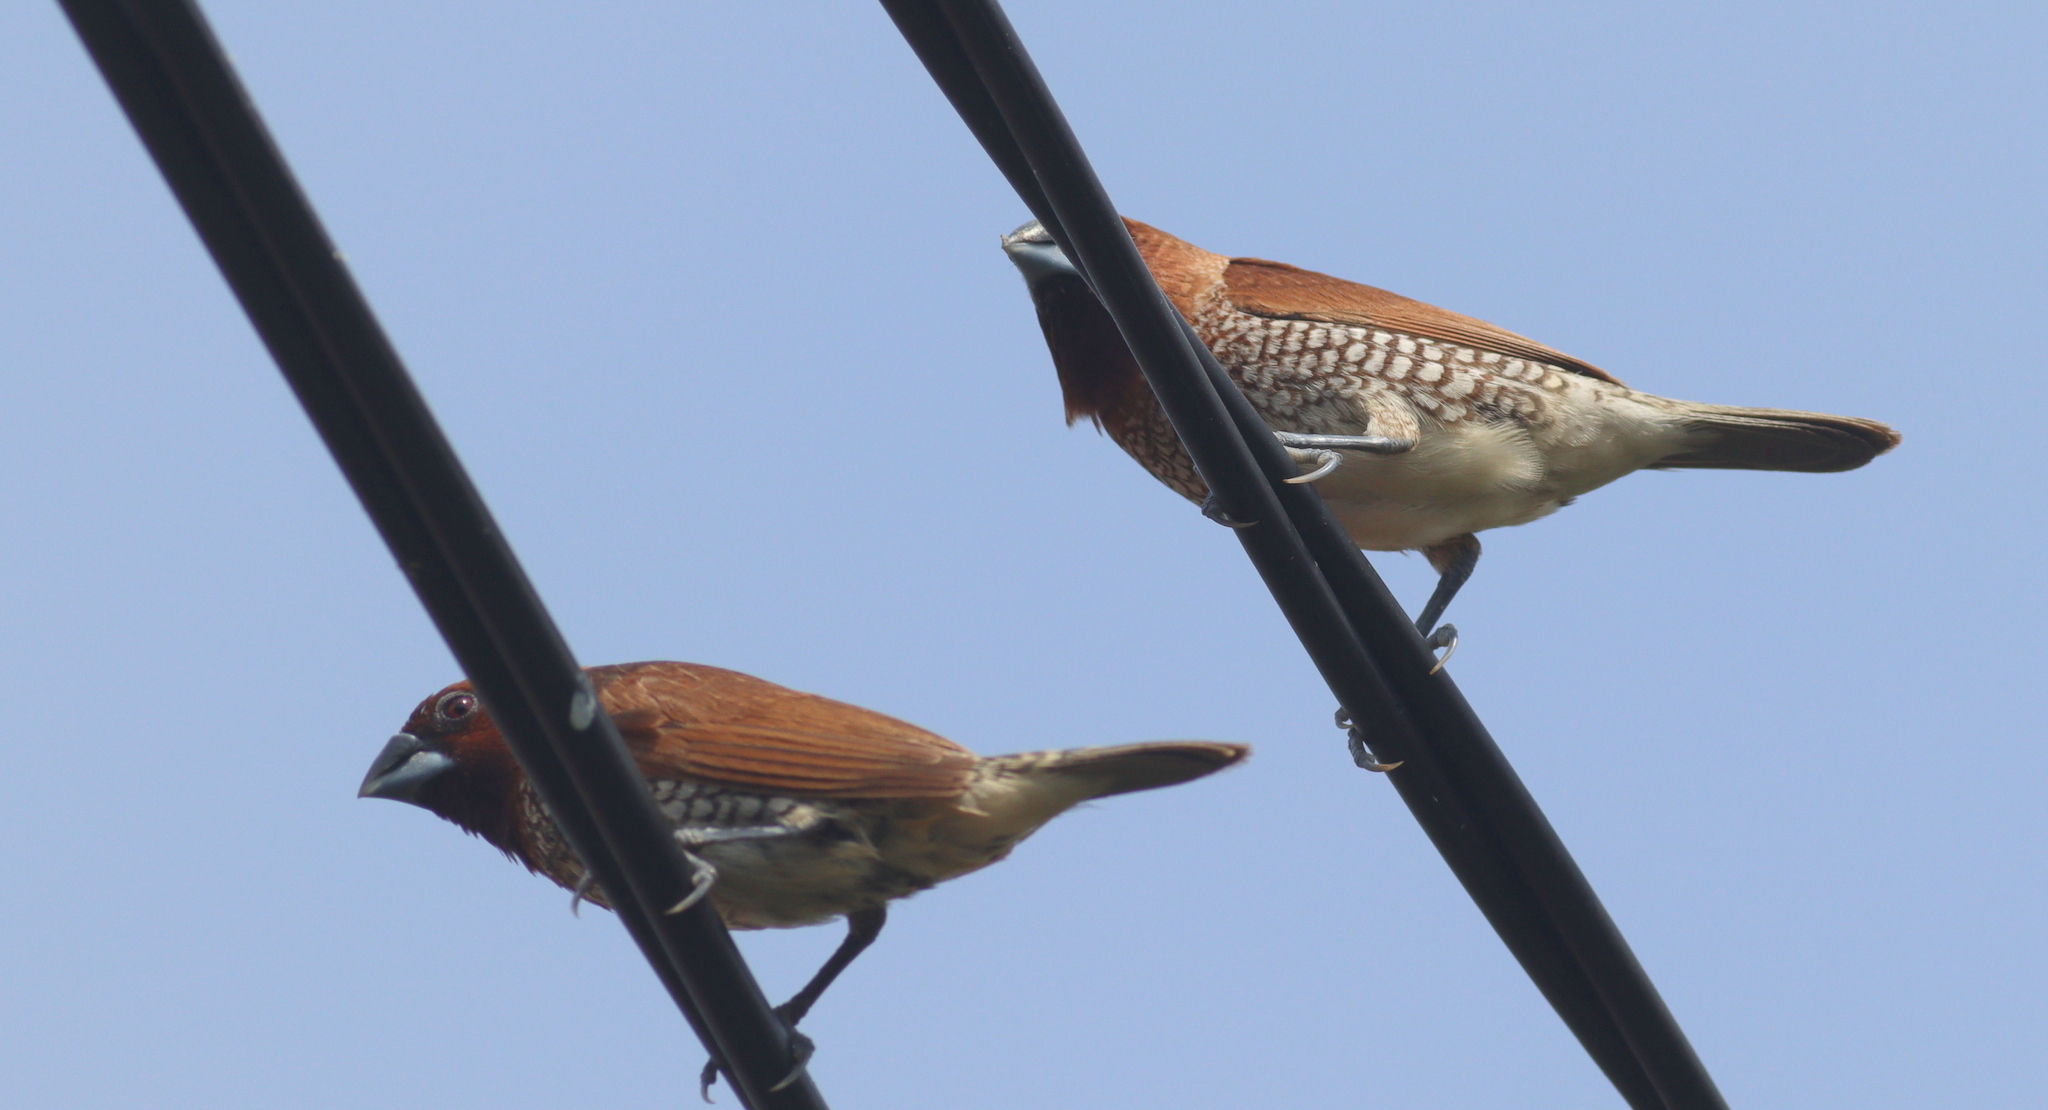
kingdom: Animalia
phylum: Chordata
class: Aves
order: Passeriformes
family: Estrildidae
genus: Lonchura
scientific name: Lonchura punctulata
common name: Scaly-breasted munia
